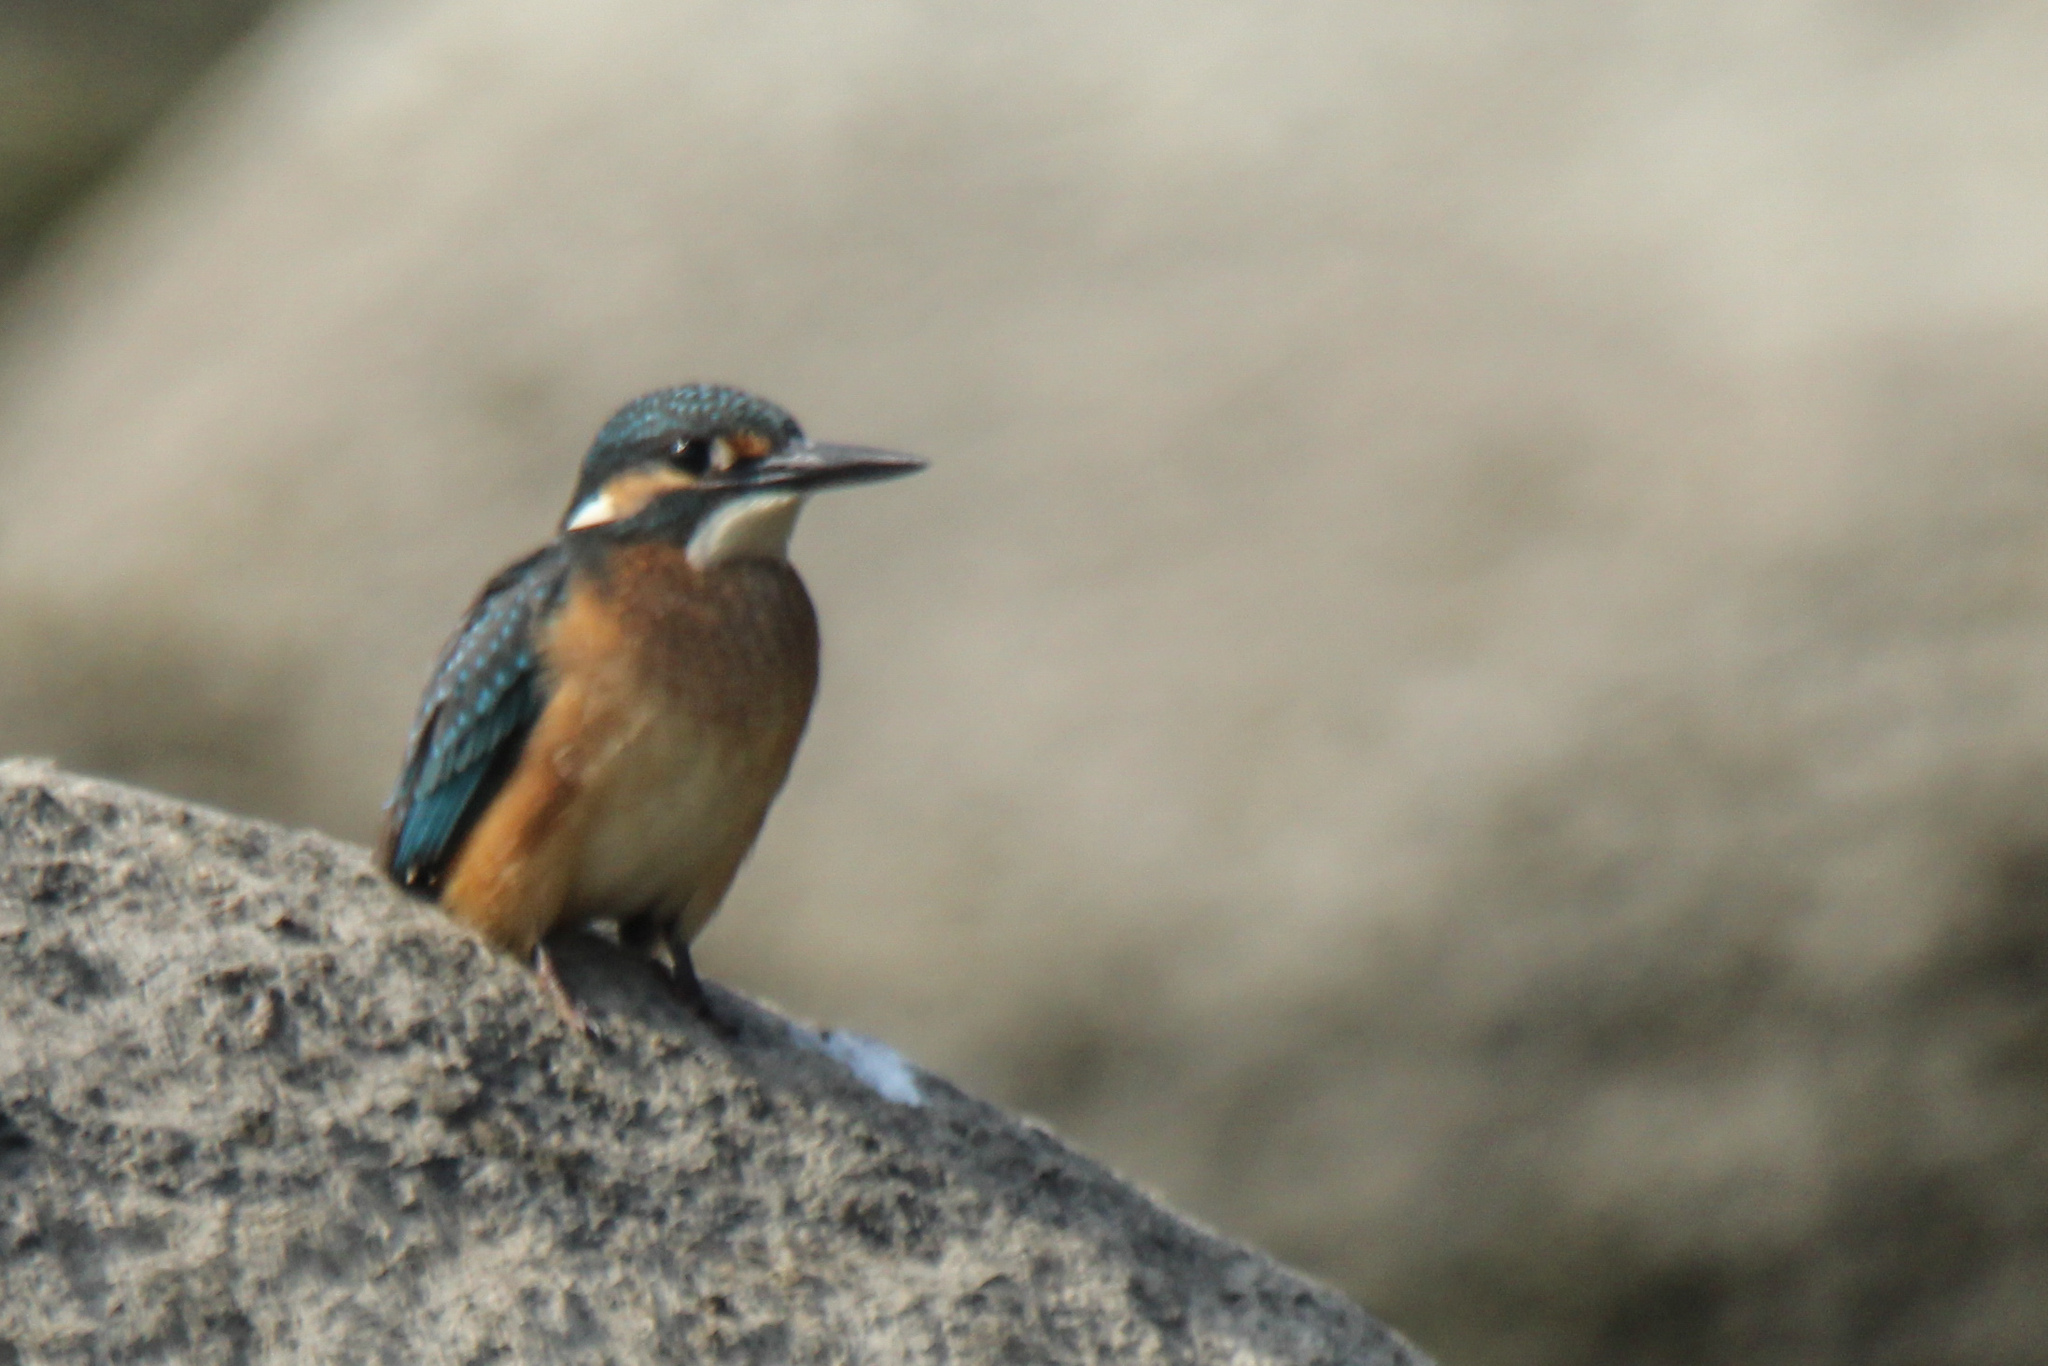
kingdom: Animalia
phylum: Chordata
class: Aves
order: Coraciiformes
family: Alcedinidae
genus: Alcedo
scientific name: Alcedo atthis
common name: Common kingfisher
